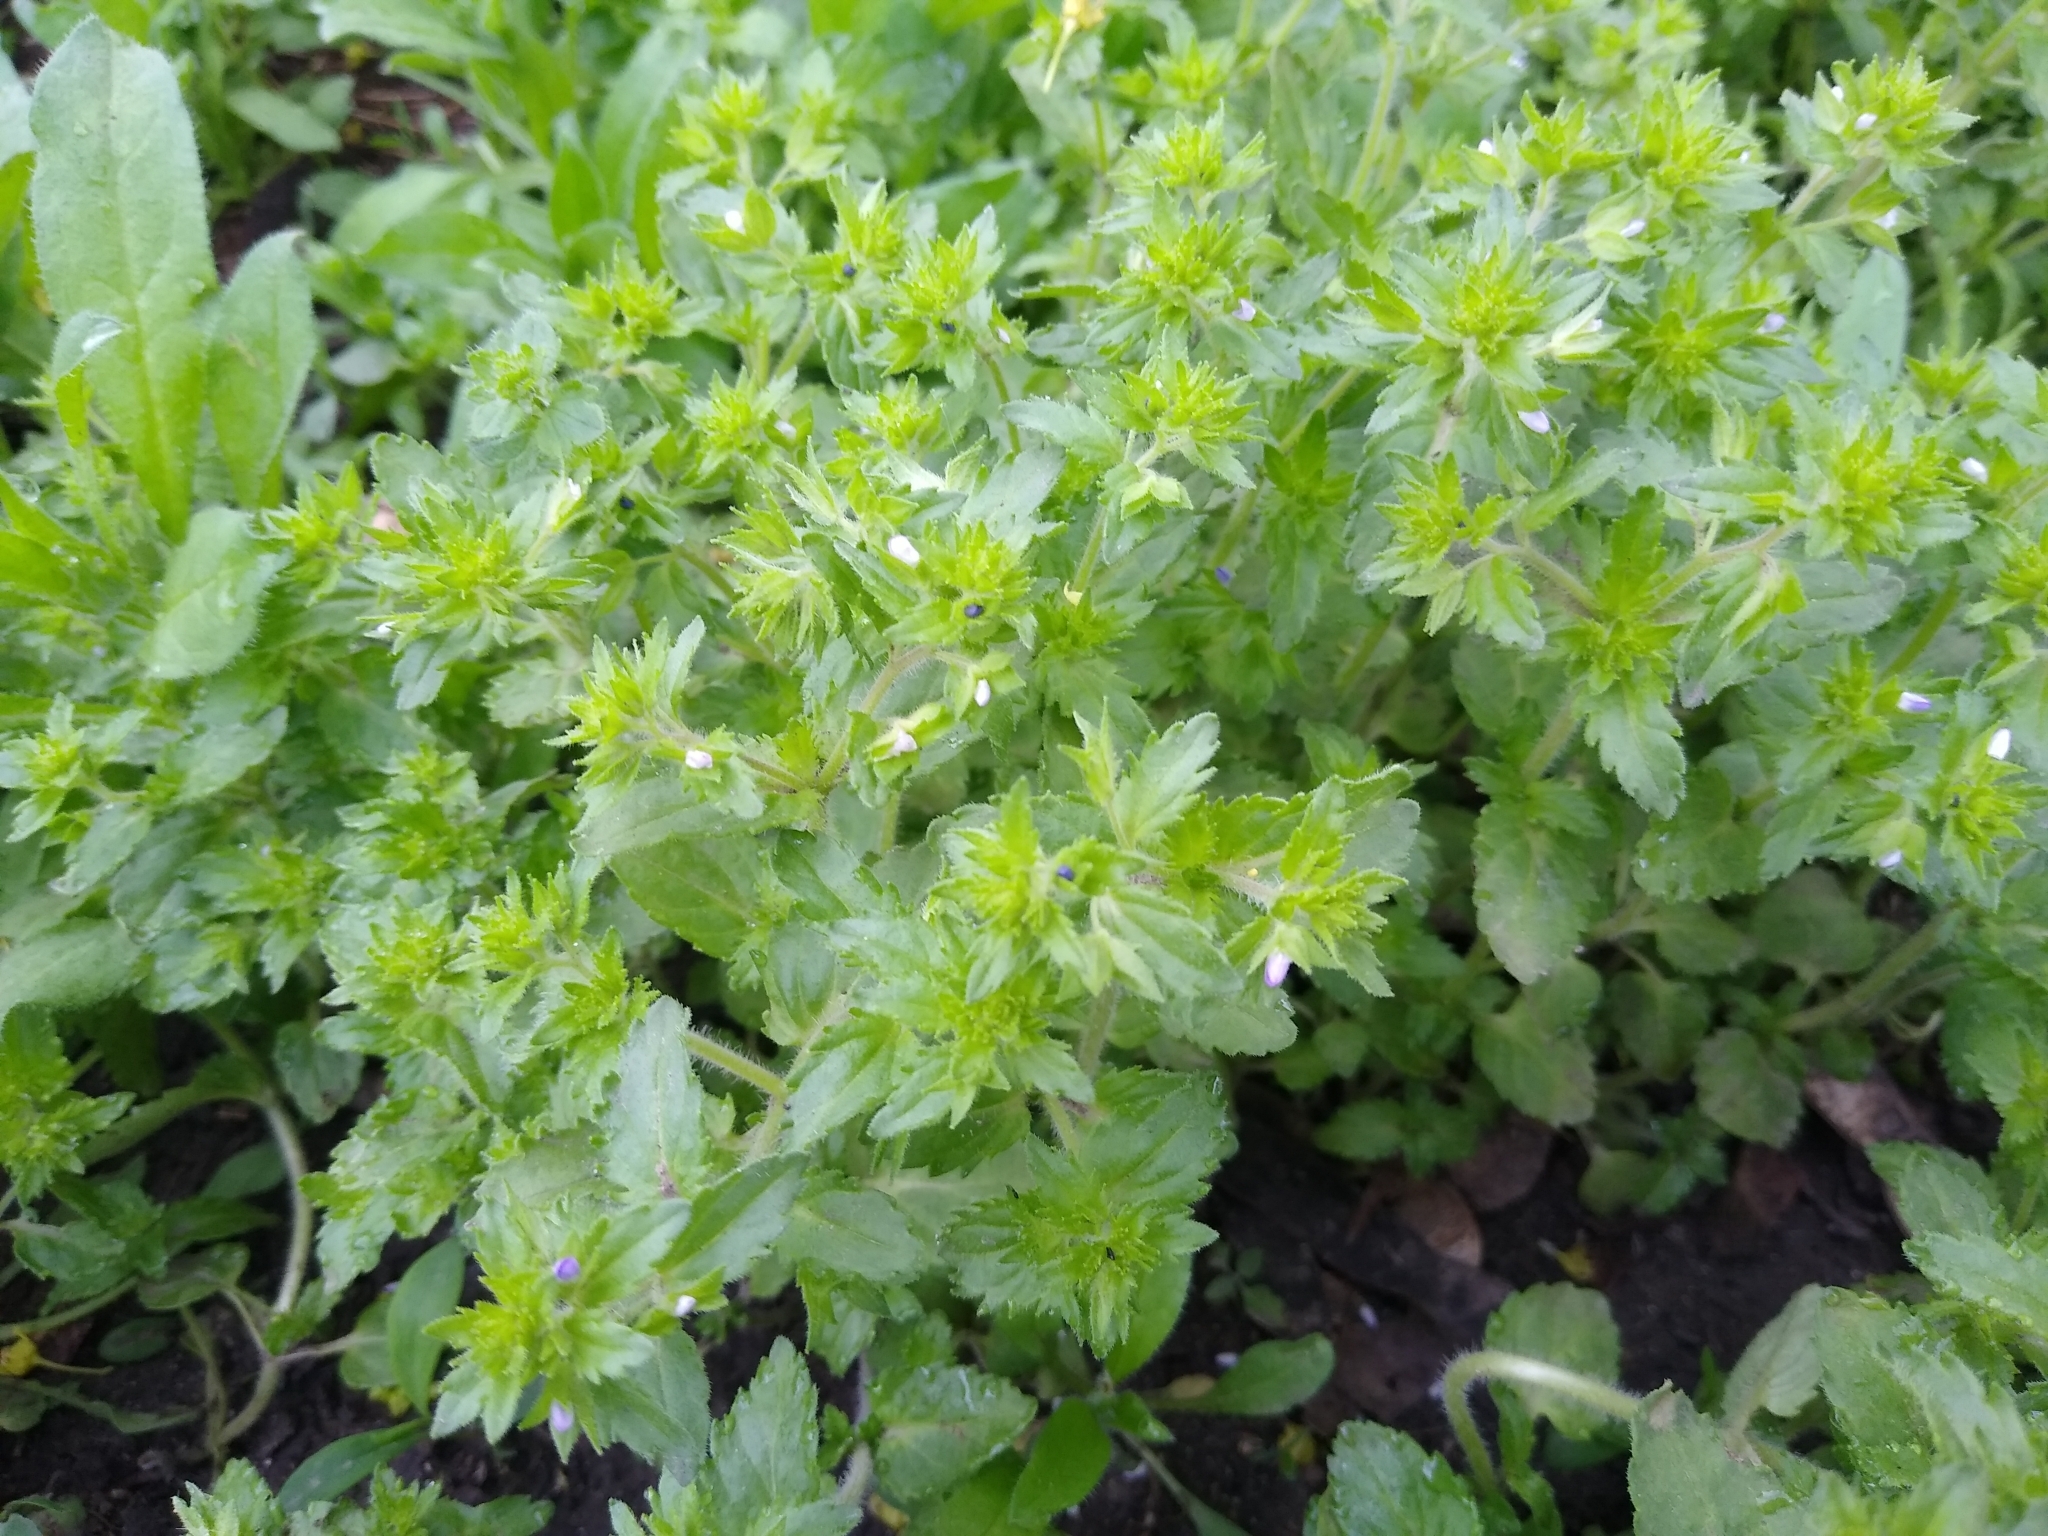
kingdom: Plantae
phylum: Tracheophyta
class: Magnoliopsida
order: Lamiales
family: Plantaginaceae
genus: Veronica
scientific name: Veronica argute-serrata
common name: Sawtooth speedwell
